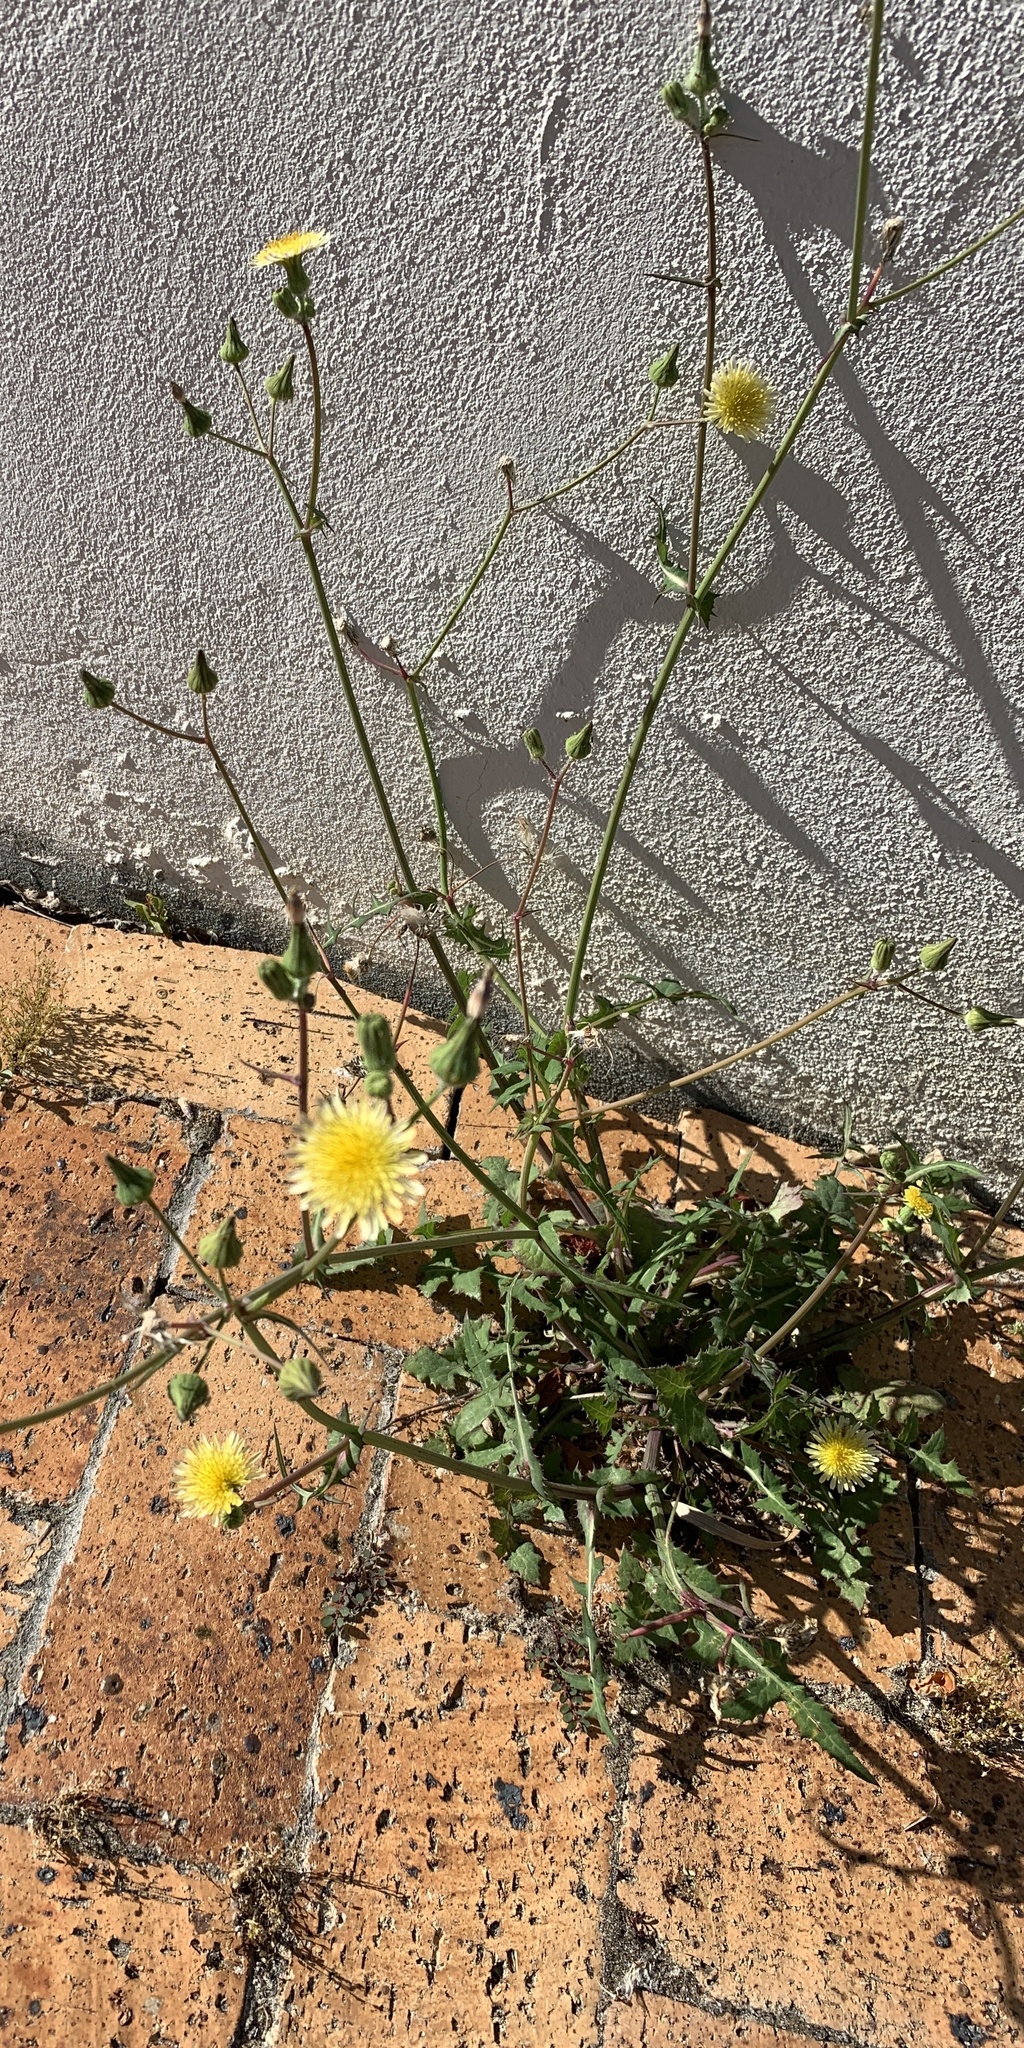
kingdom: Plantae
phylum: Tracheophyta
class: Magnoliopsida
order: Asterales
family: Asteraceae
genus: Sonchus
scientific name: Sonchus oleraceus
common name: Common sowthistle
